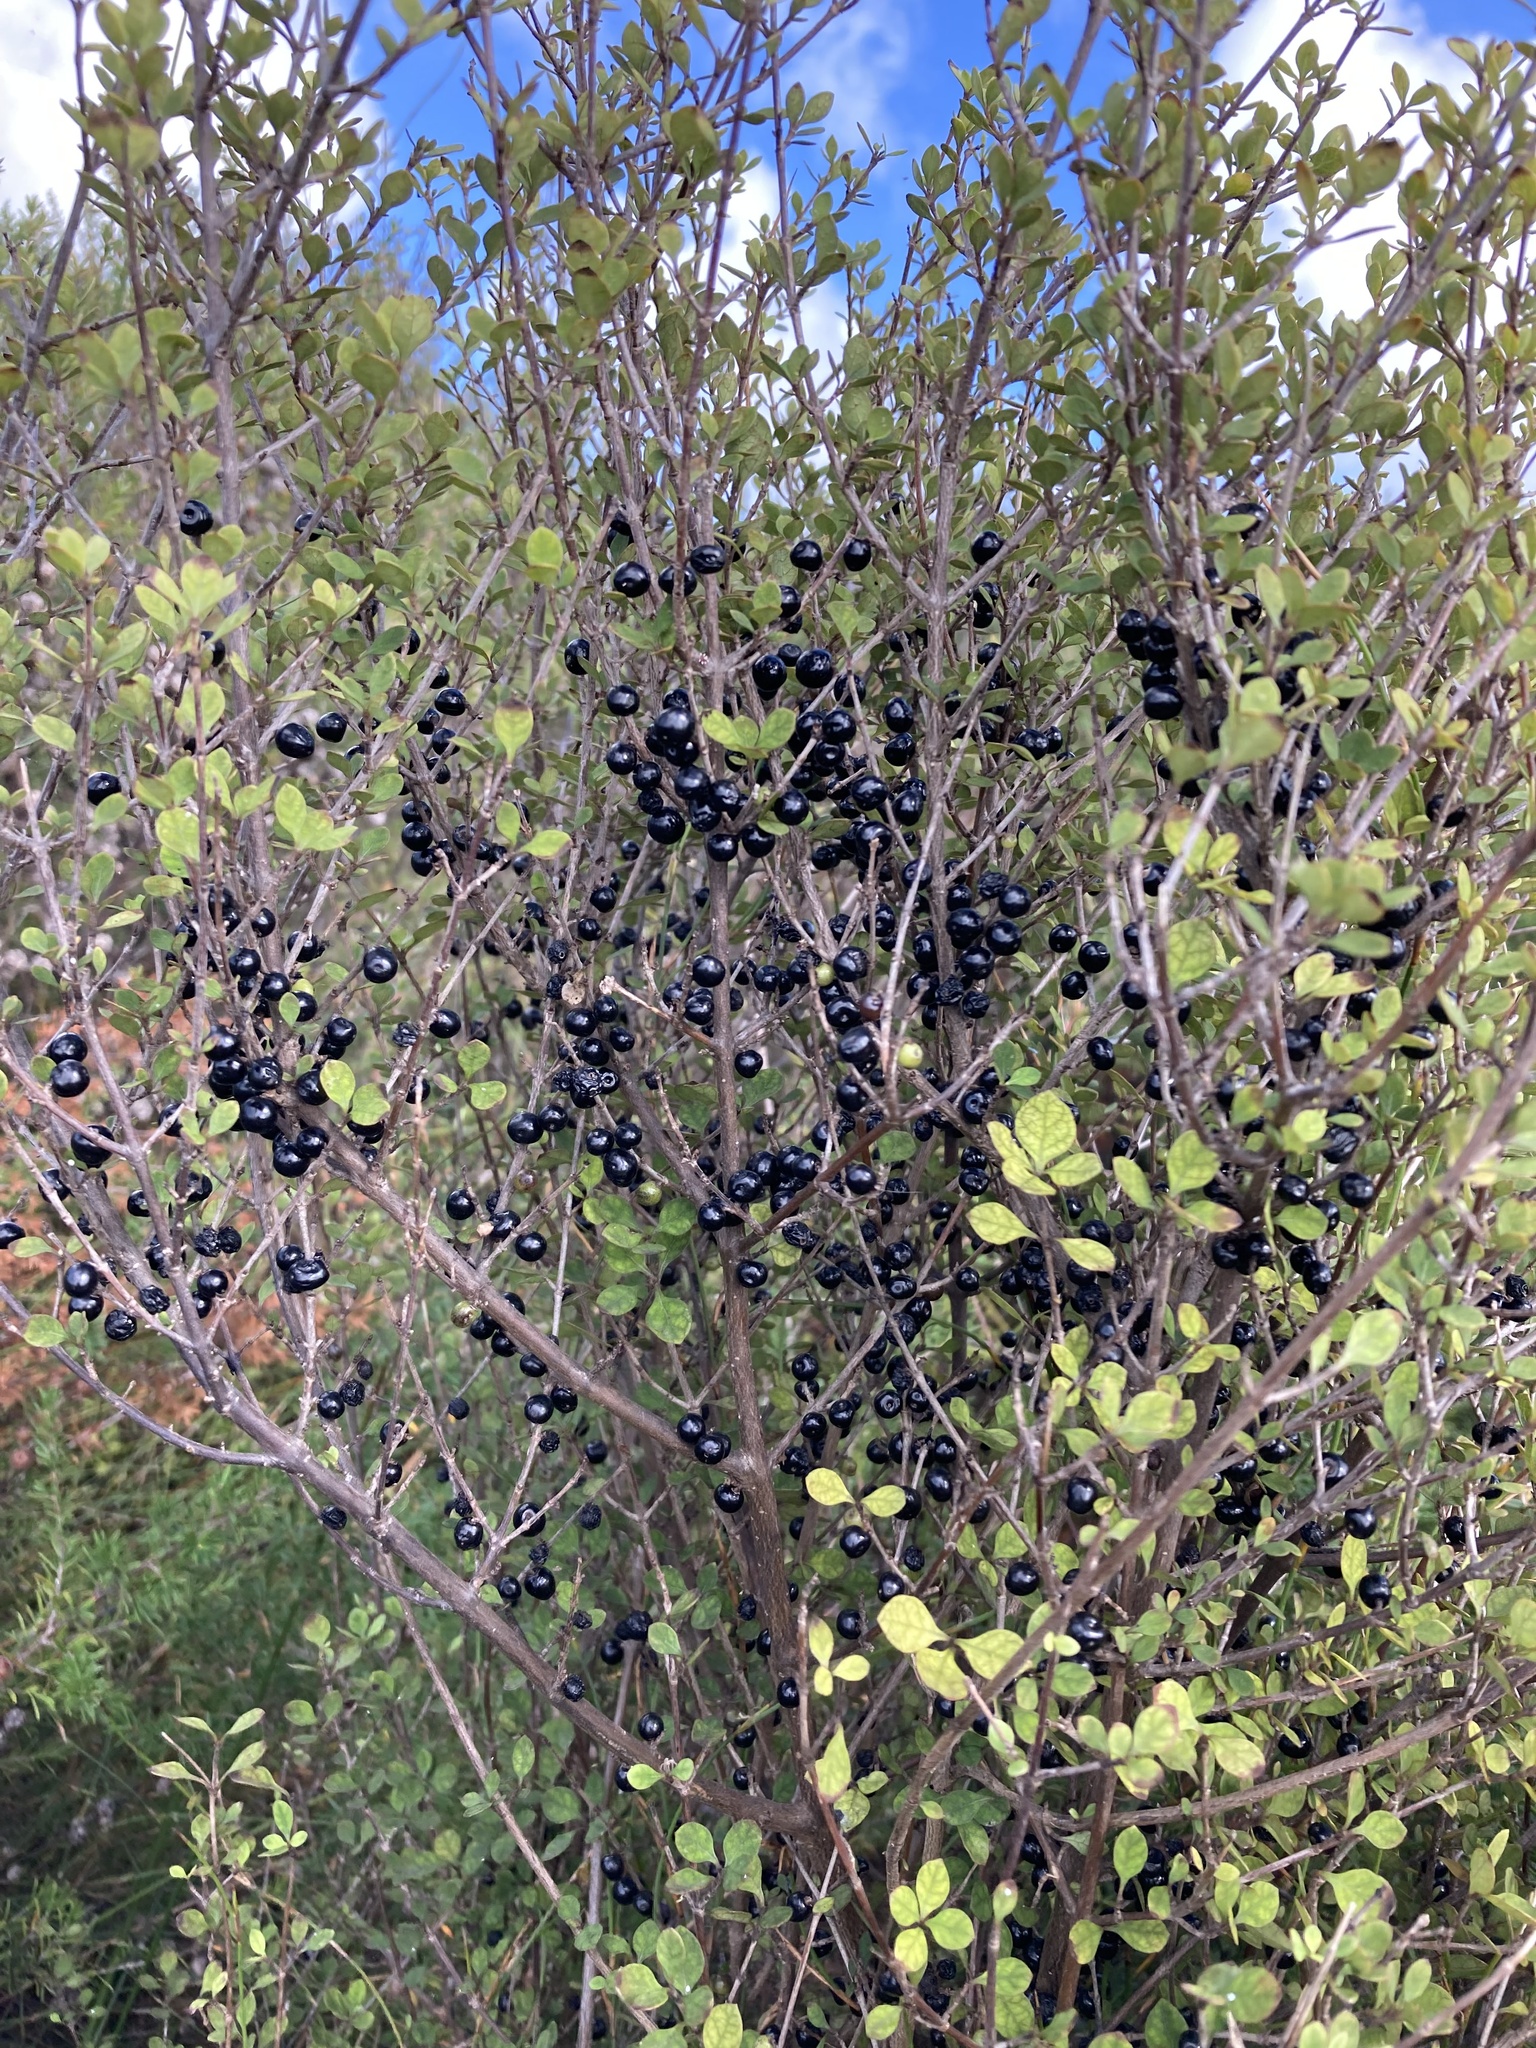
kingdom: Plantae
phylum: Tracheophyta
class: Magnoliopsida
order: Gentianales
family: Rubiaceae
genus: Coprosma
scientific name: Coprosma tenuicaulis
